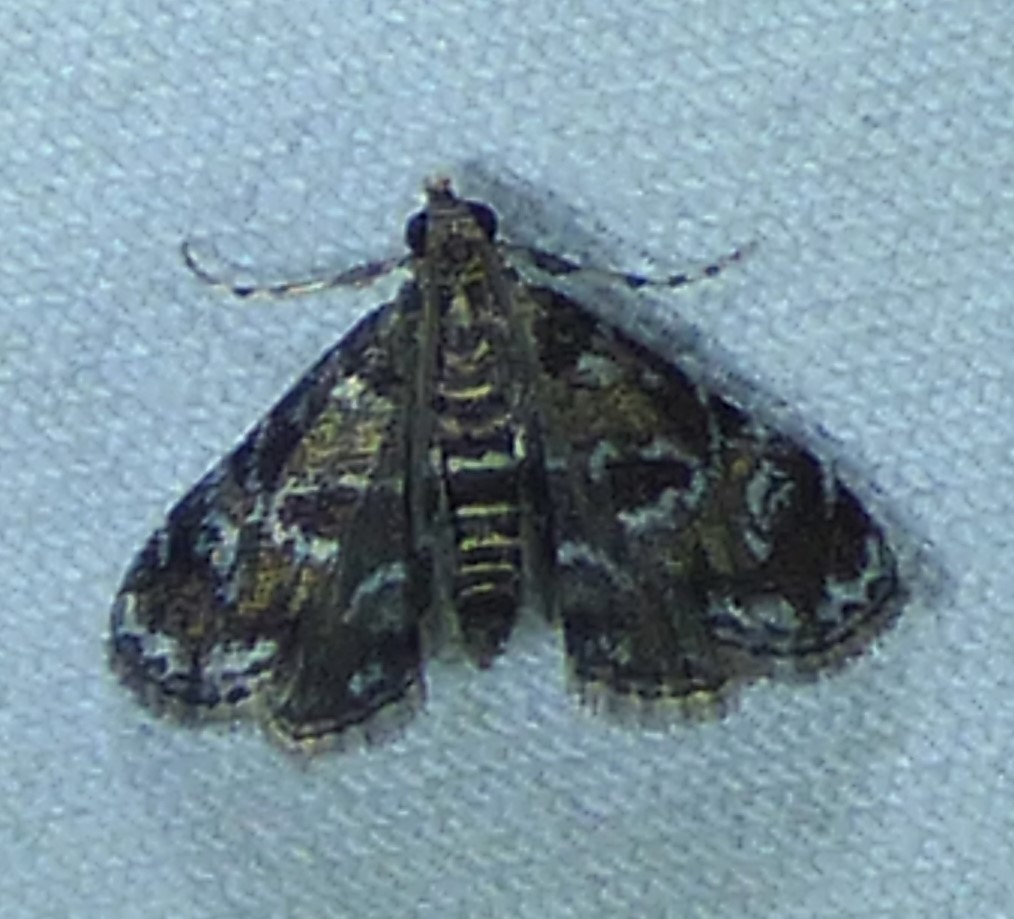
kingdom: Animalia
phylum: Arthropoda
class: Insecta
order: Lepidoptera
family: Crambidae
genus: Elophila
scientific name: Elophila obliteralis
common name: Waterlily leafcutter moth
